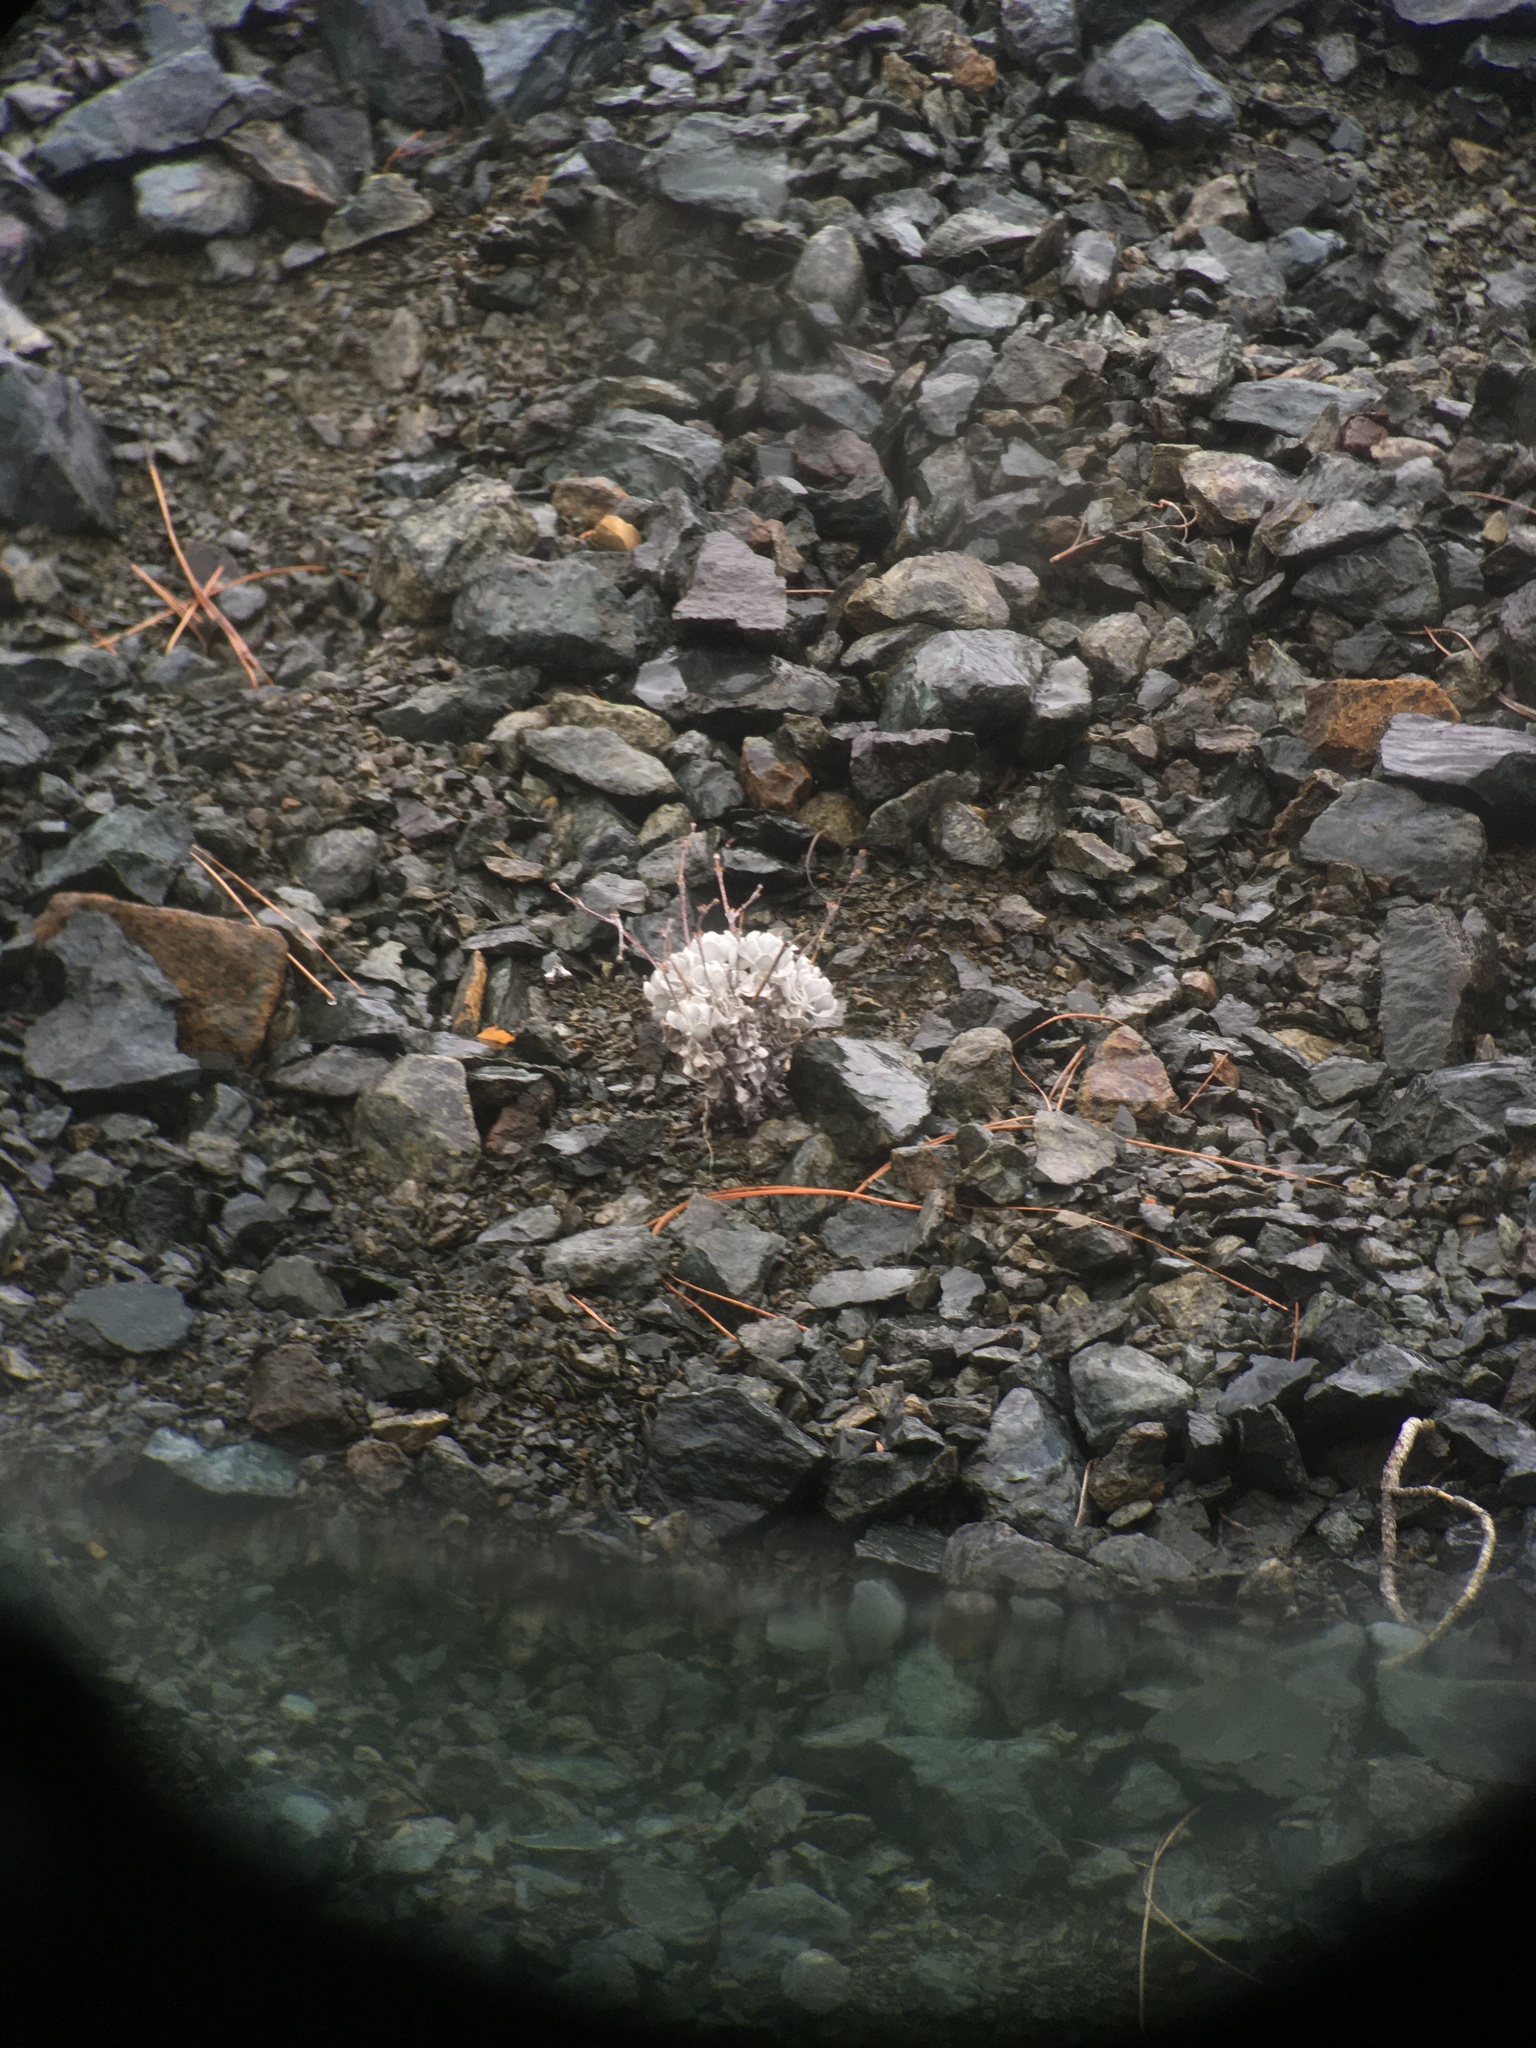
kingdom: Plantae
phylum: Tracheophyta
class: Magnoliopsida
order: Caryophyllales
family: Polygonaceae
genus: Eriogonum
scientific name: Eriogonum saxatile
